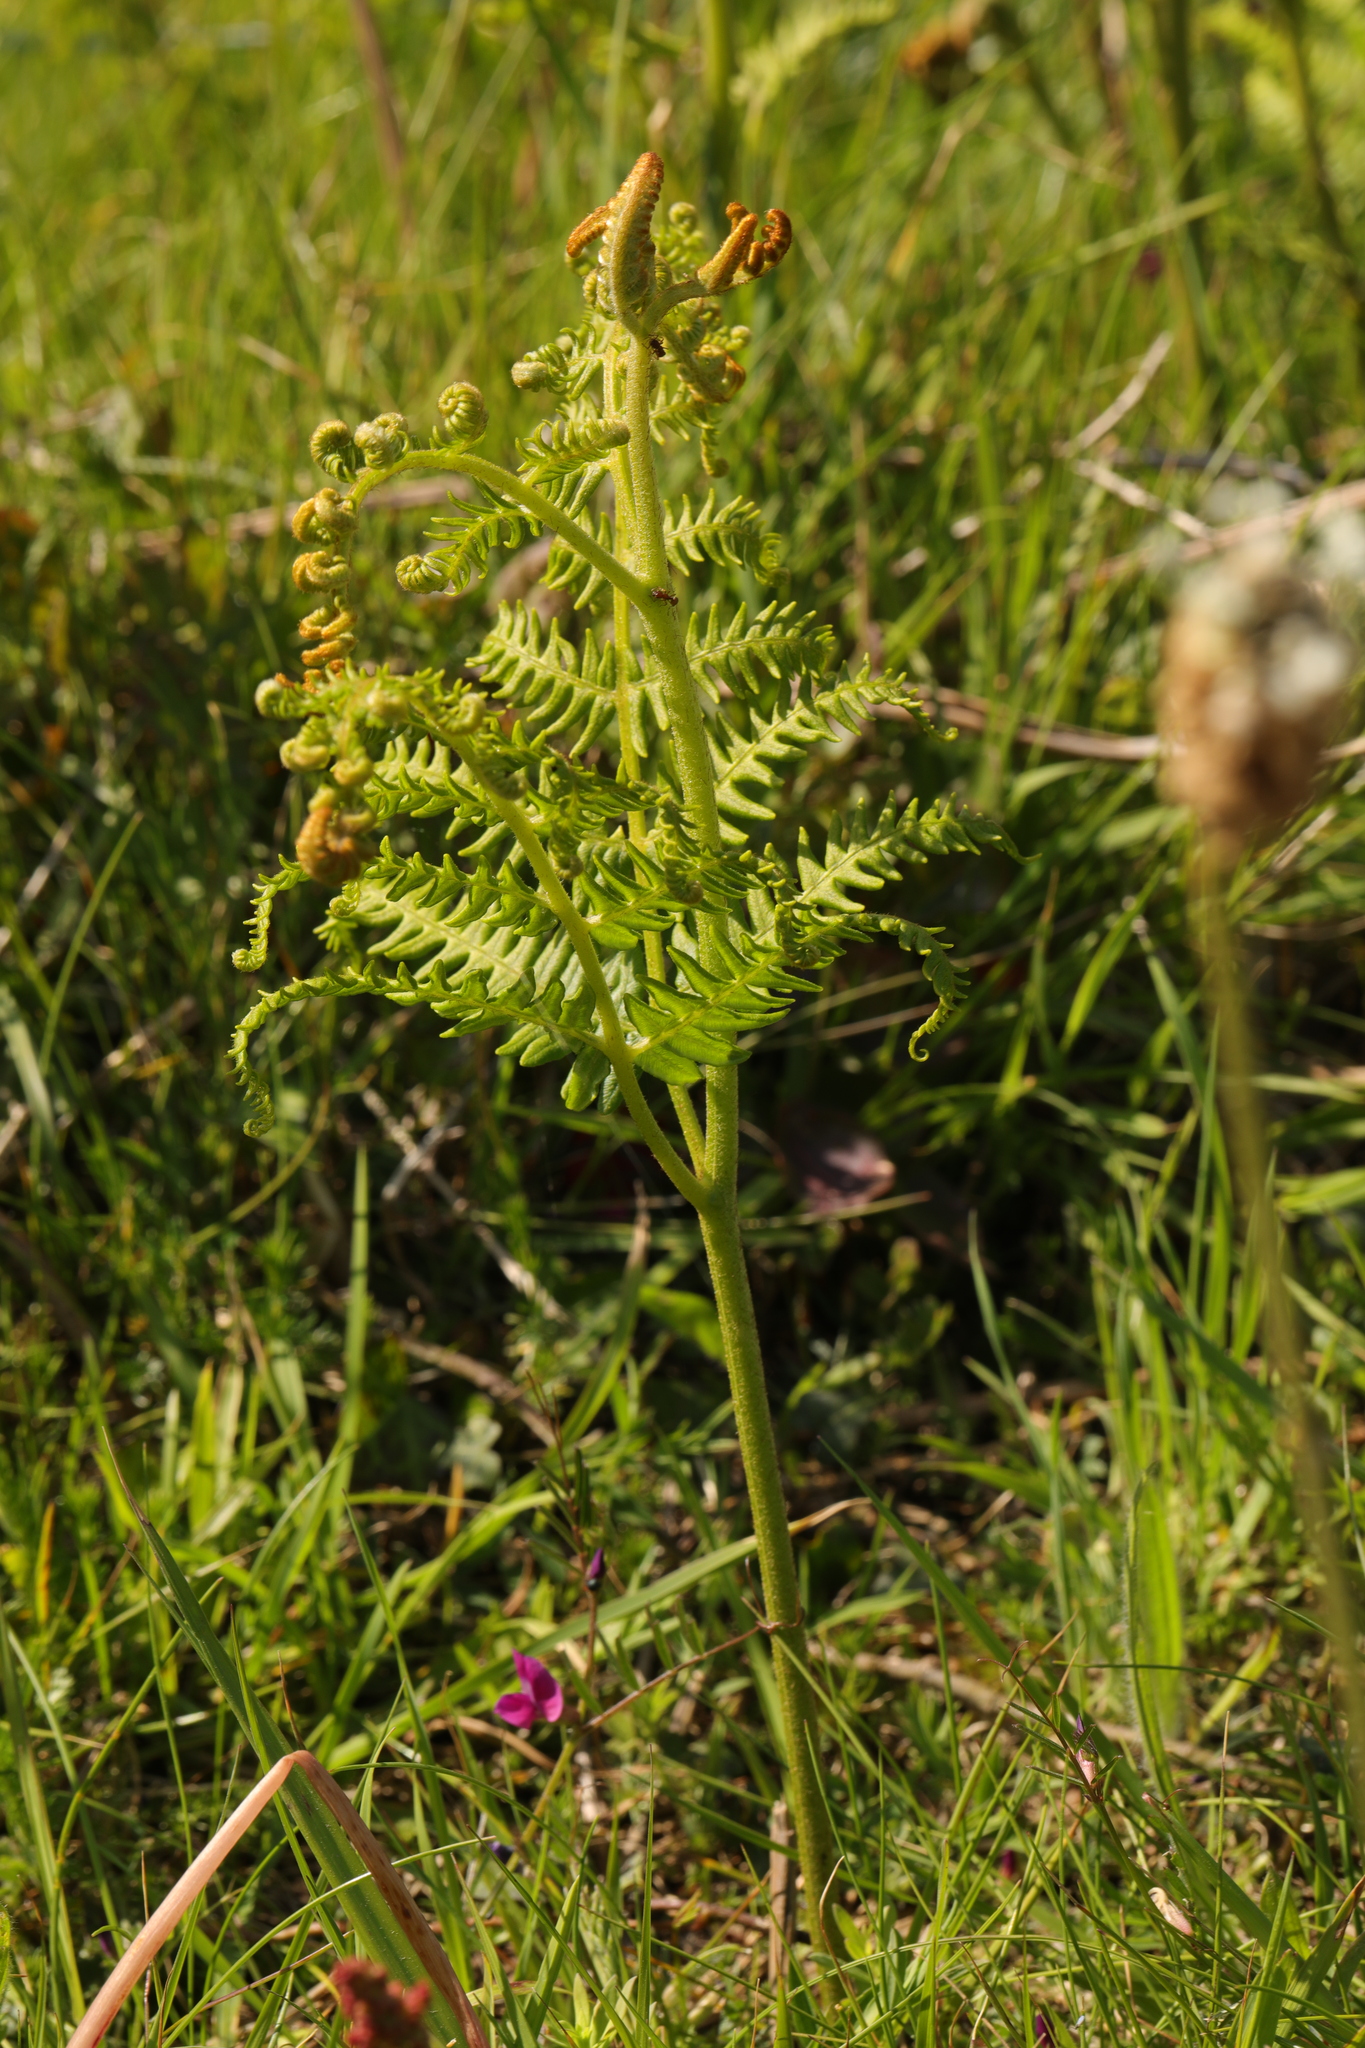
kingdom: Plantae
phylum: Tracheophyta
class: Polypodiopsida
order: Polypodiales
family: Dennstaedtiaceae
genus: Pteridium
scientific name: Pteridium aquilinum
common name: Bracken
